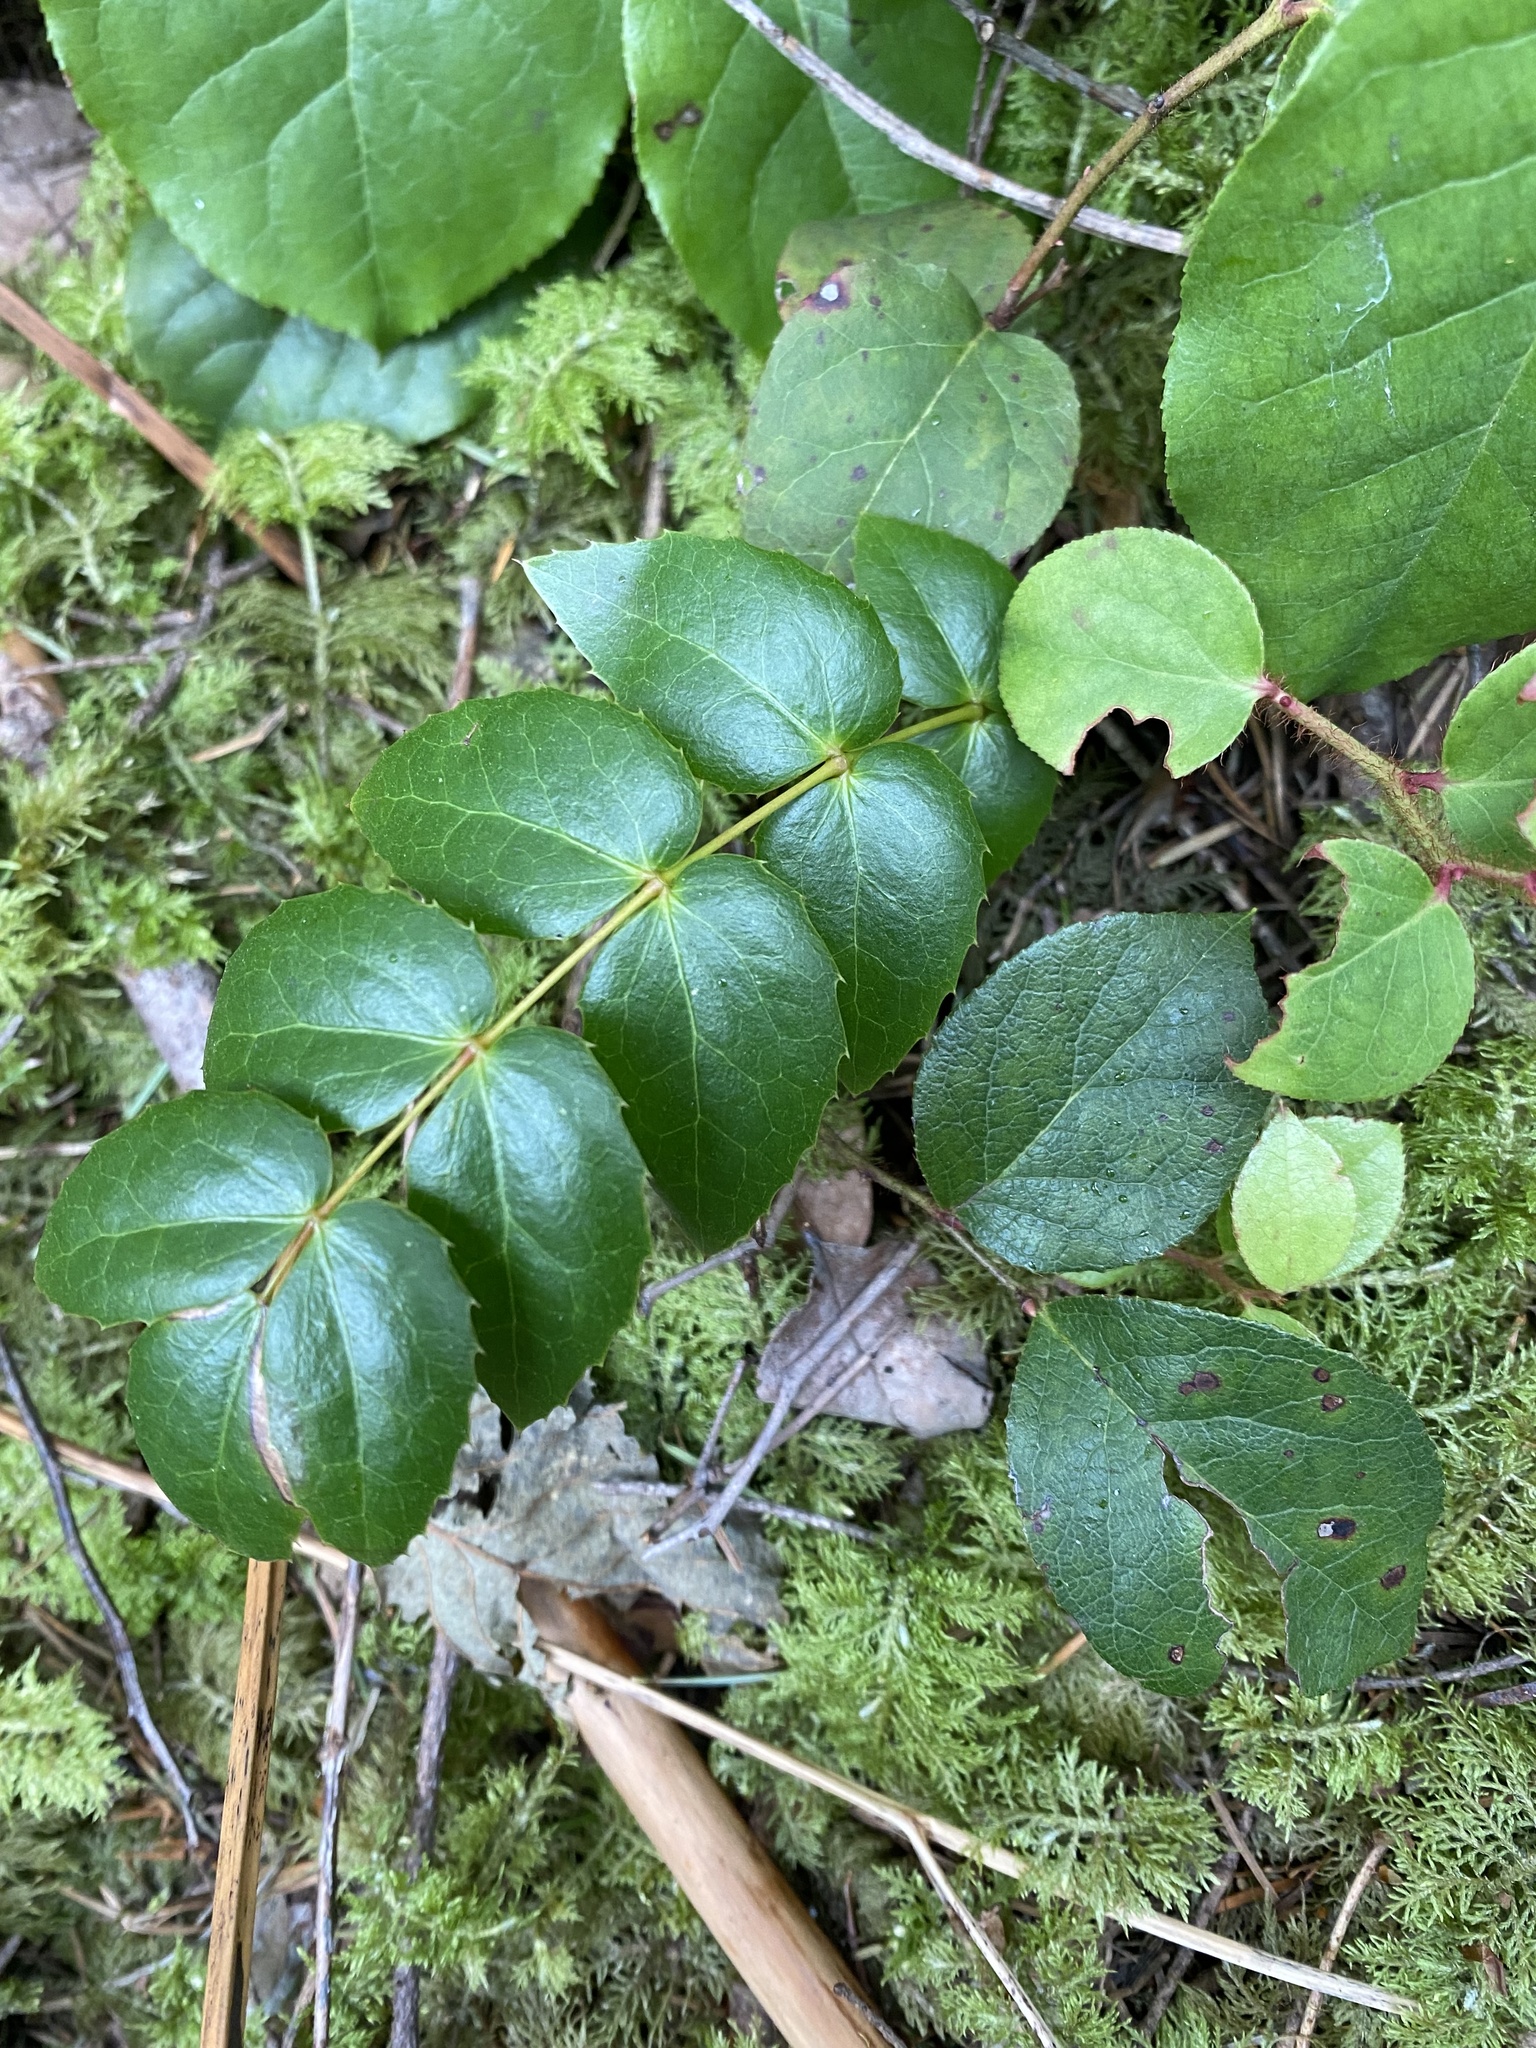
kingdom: Plantae
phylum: Tracheophyta
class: Magnoliopsida
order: Ranunculales
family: Berberidaceae
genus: Mahonia
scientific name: Mahonia nervosa
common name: Cascade oregon-grape
